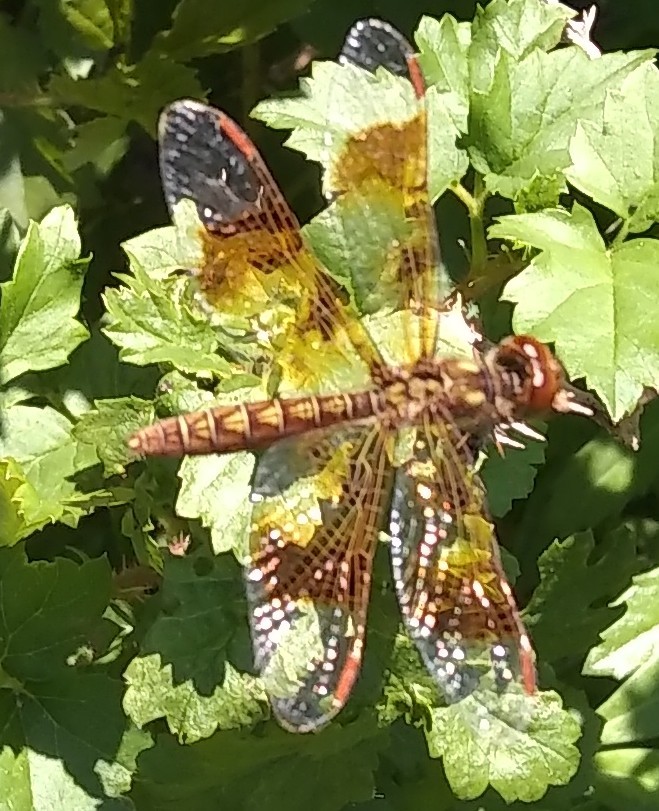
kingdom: Animalia
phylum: Arthropoda
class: Insecta
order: Odonata
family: Libellulidae
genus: Perithemis
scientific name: Perithemis tenera
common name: Eastern amberwing
